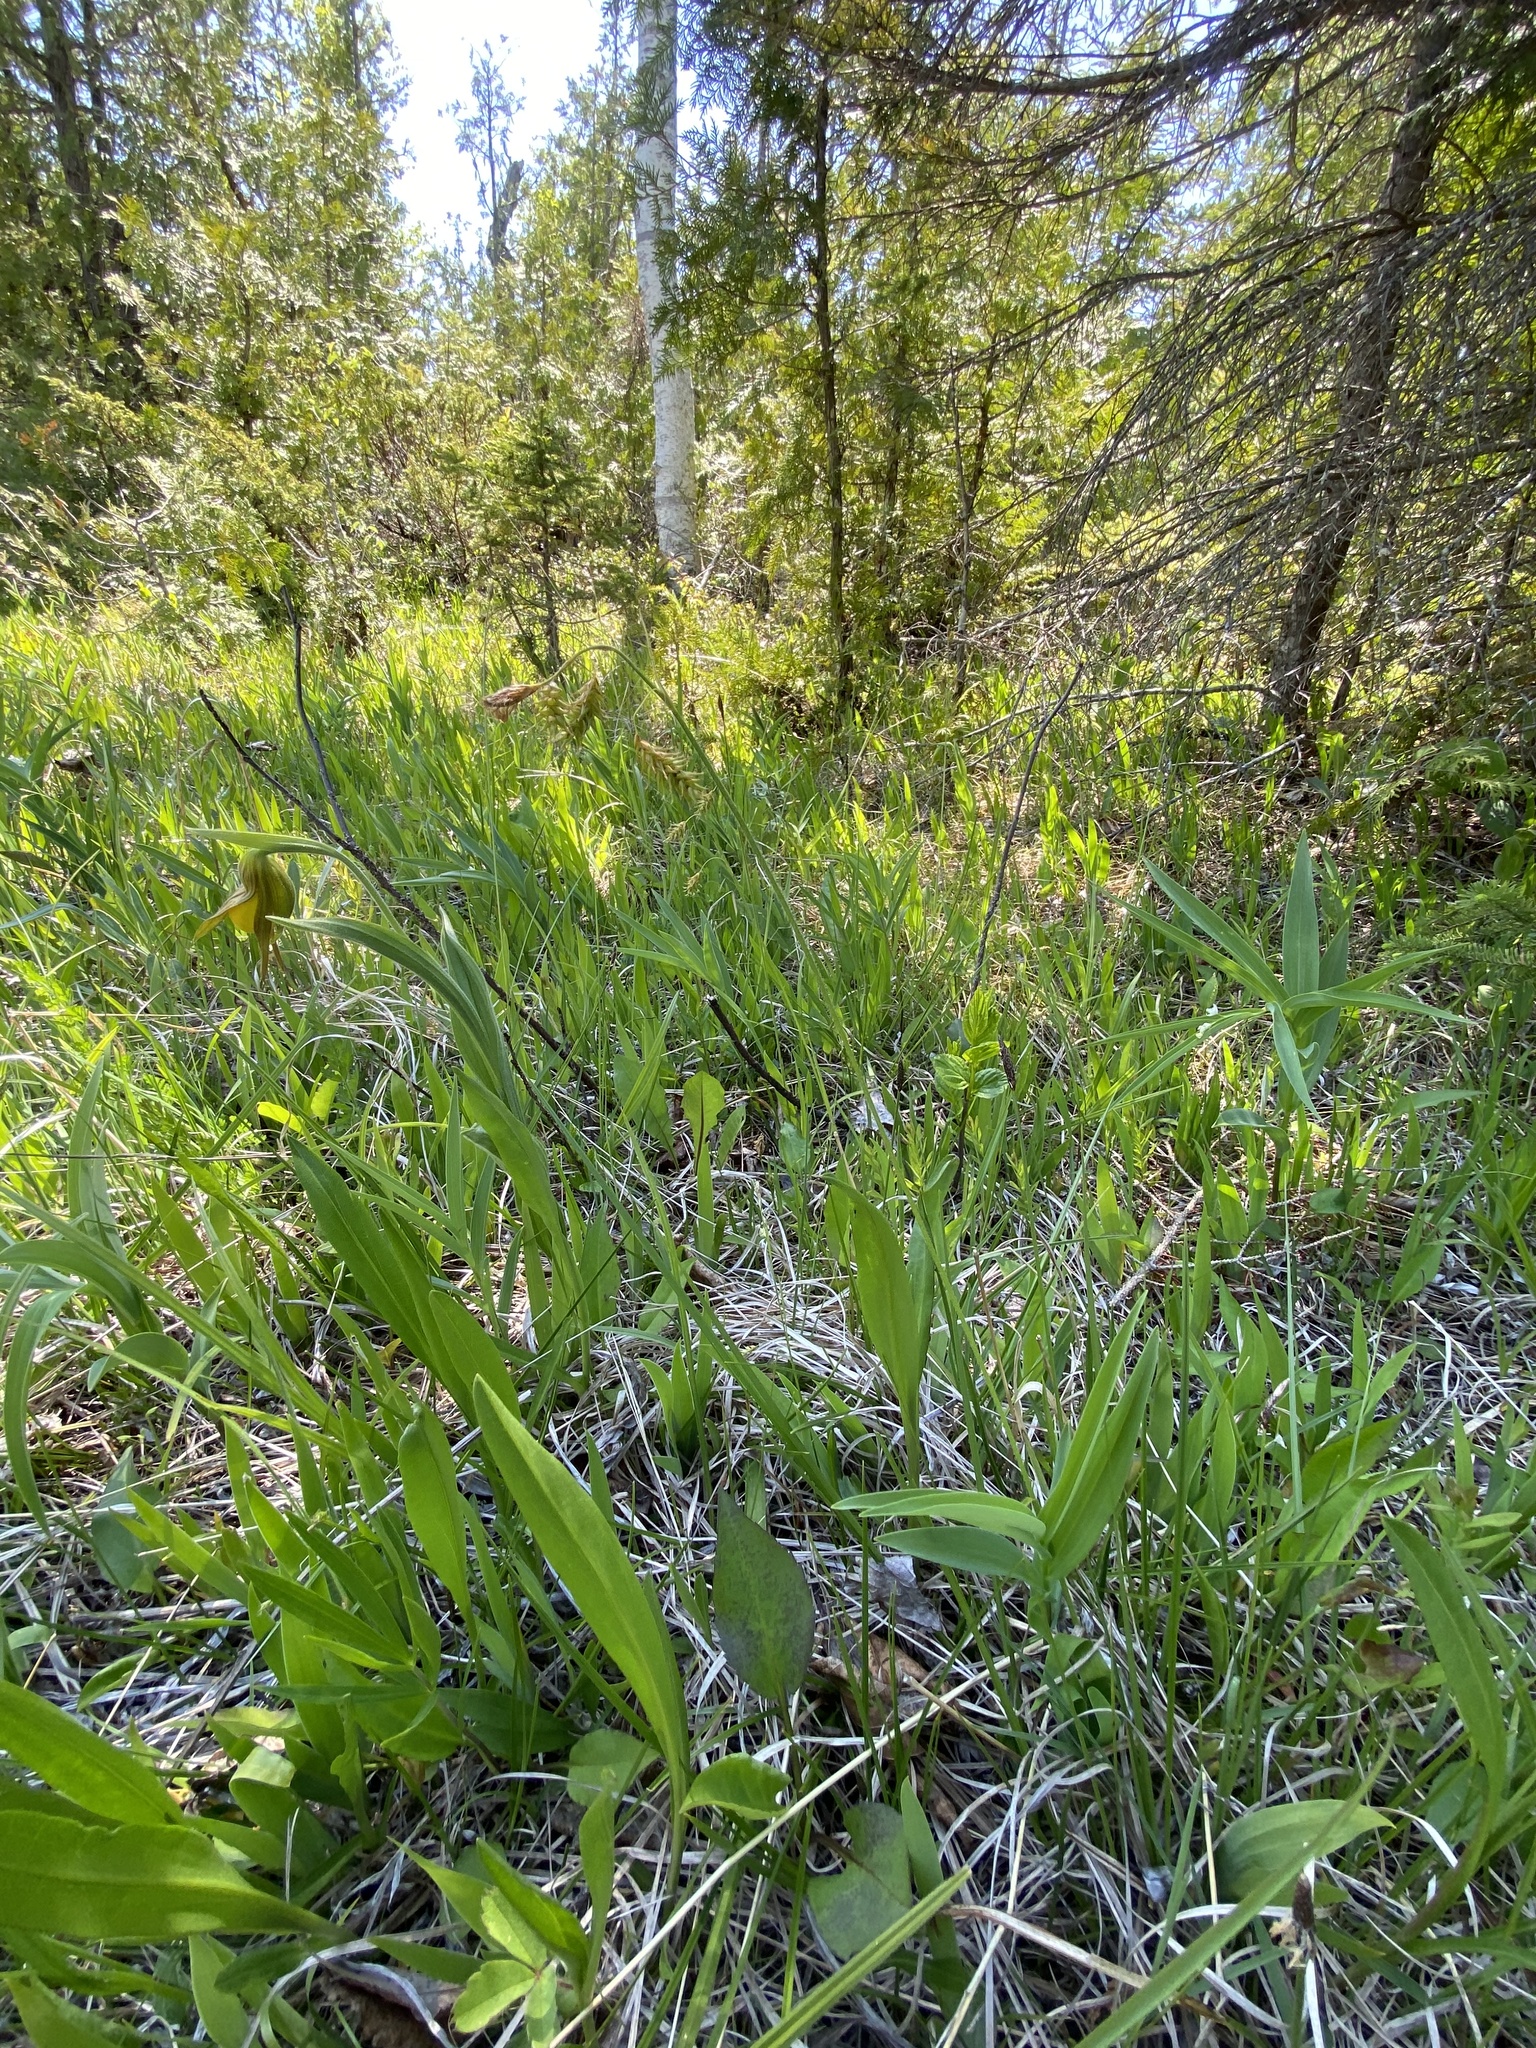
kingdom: Plantae
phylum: Tracheophyta
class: Liliopsida
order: Poales
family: Cyperaceae
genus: Carex
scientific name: Carex castanea
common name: Chestnut sedge
